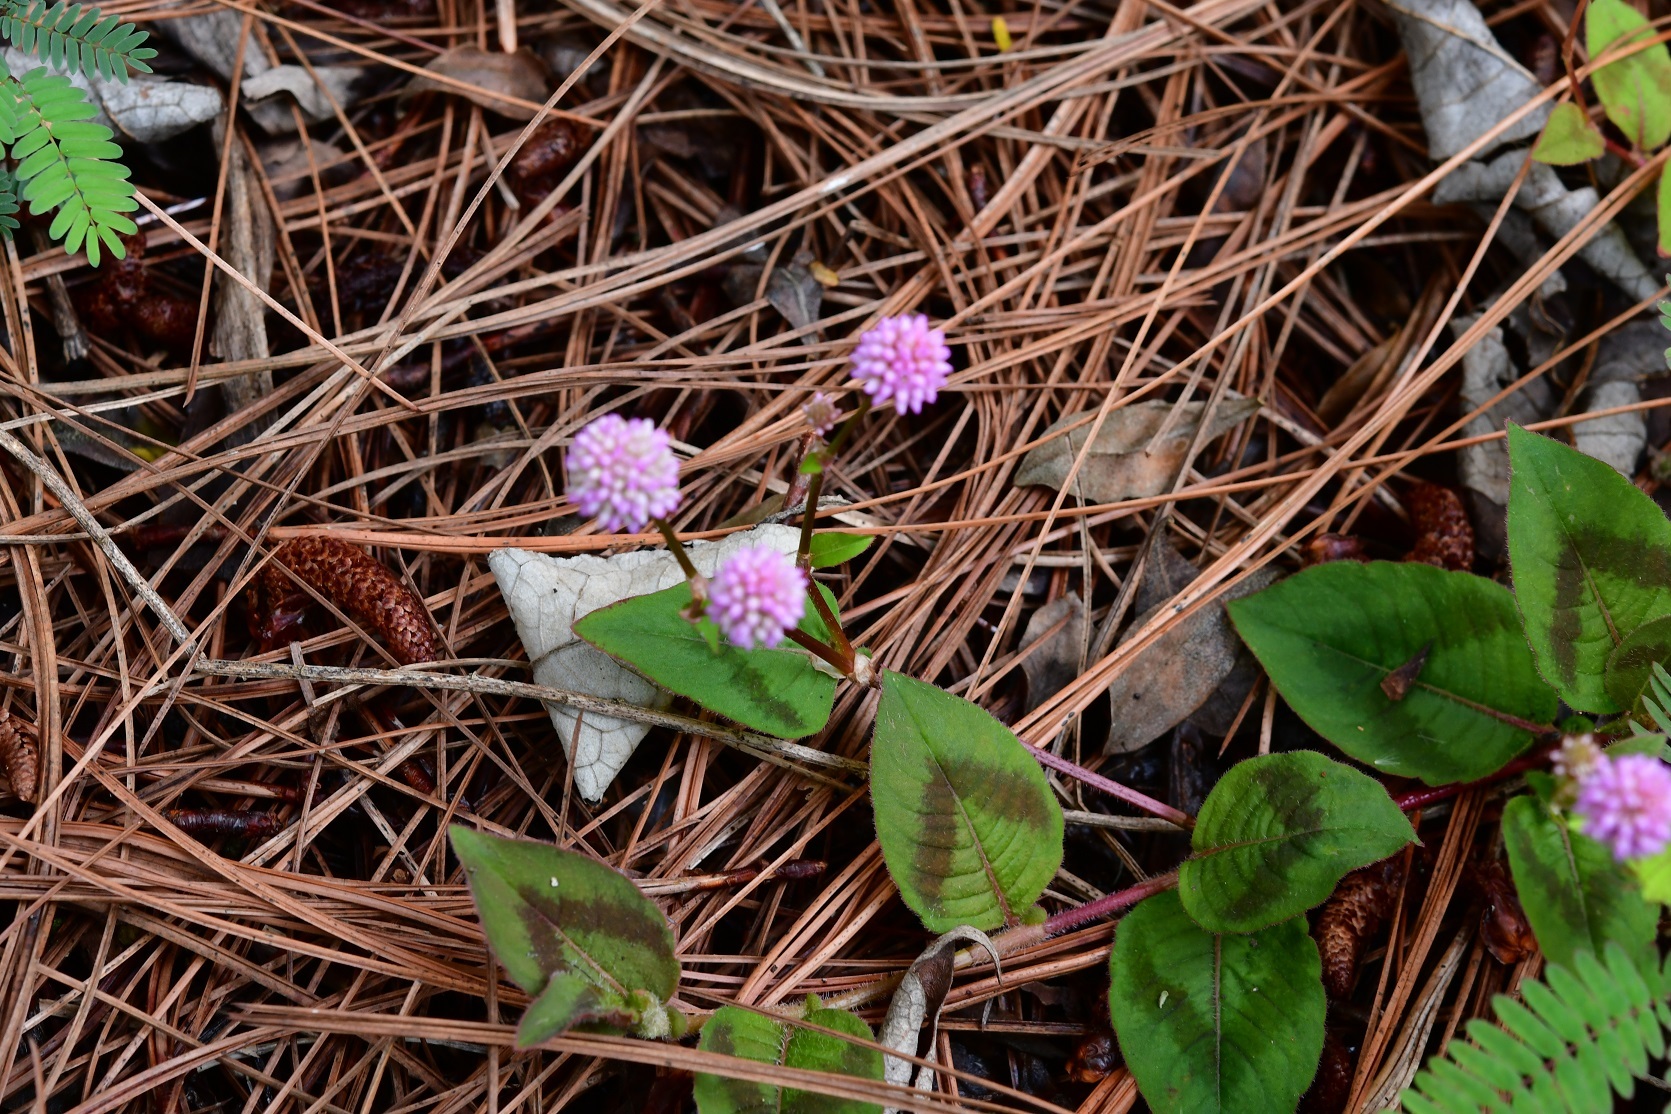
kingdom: Plantae
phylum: Tracheophyta
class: Magnoliopsida
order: Caryophyllales
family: Polygonaceae
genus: Persicaria
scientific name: Persicaria capitata
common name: Pinkhead smartweed
